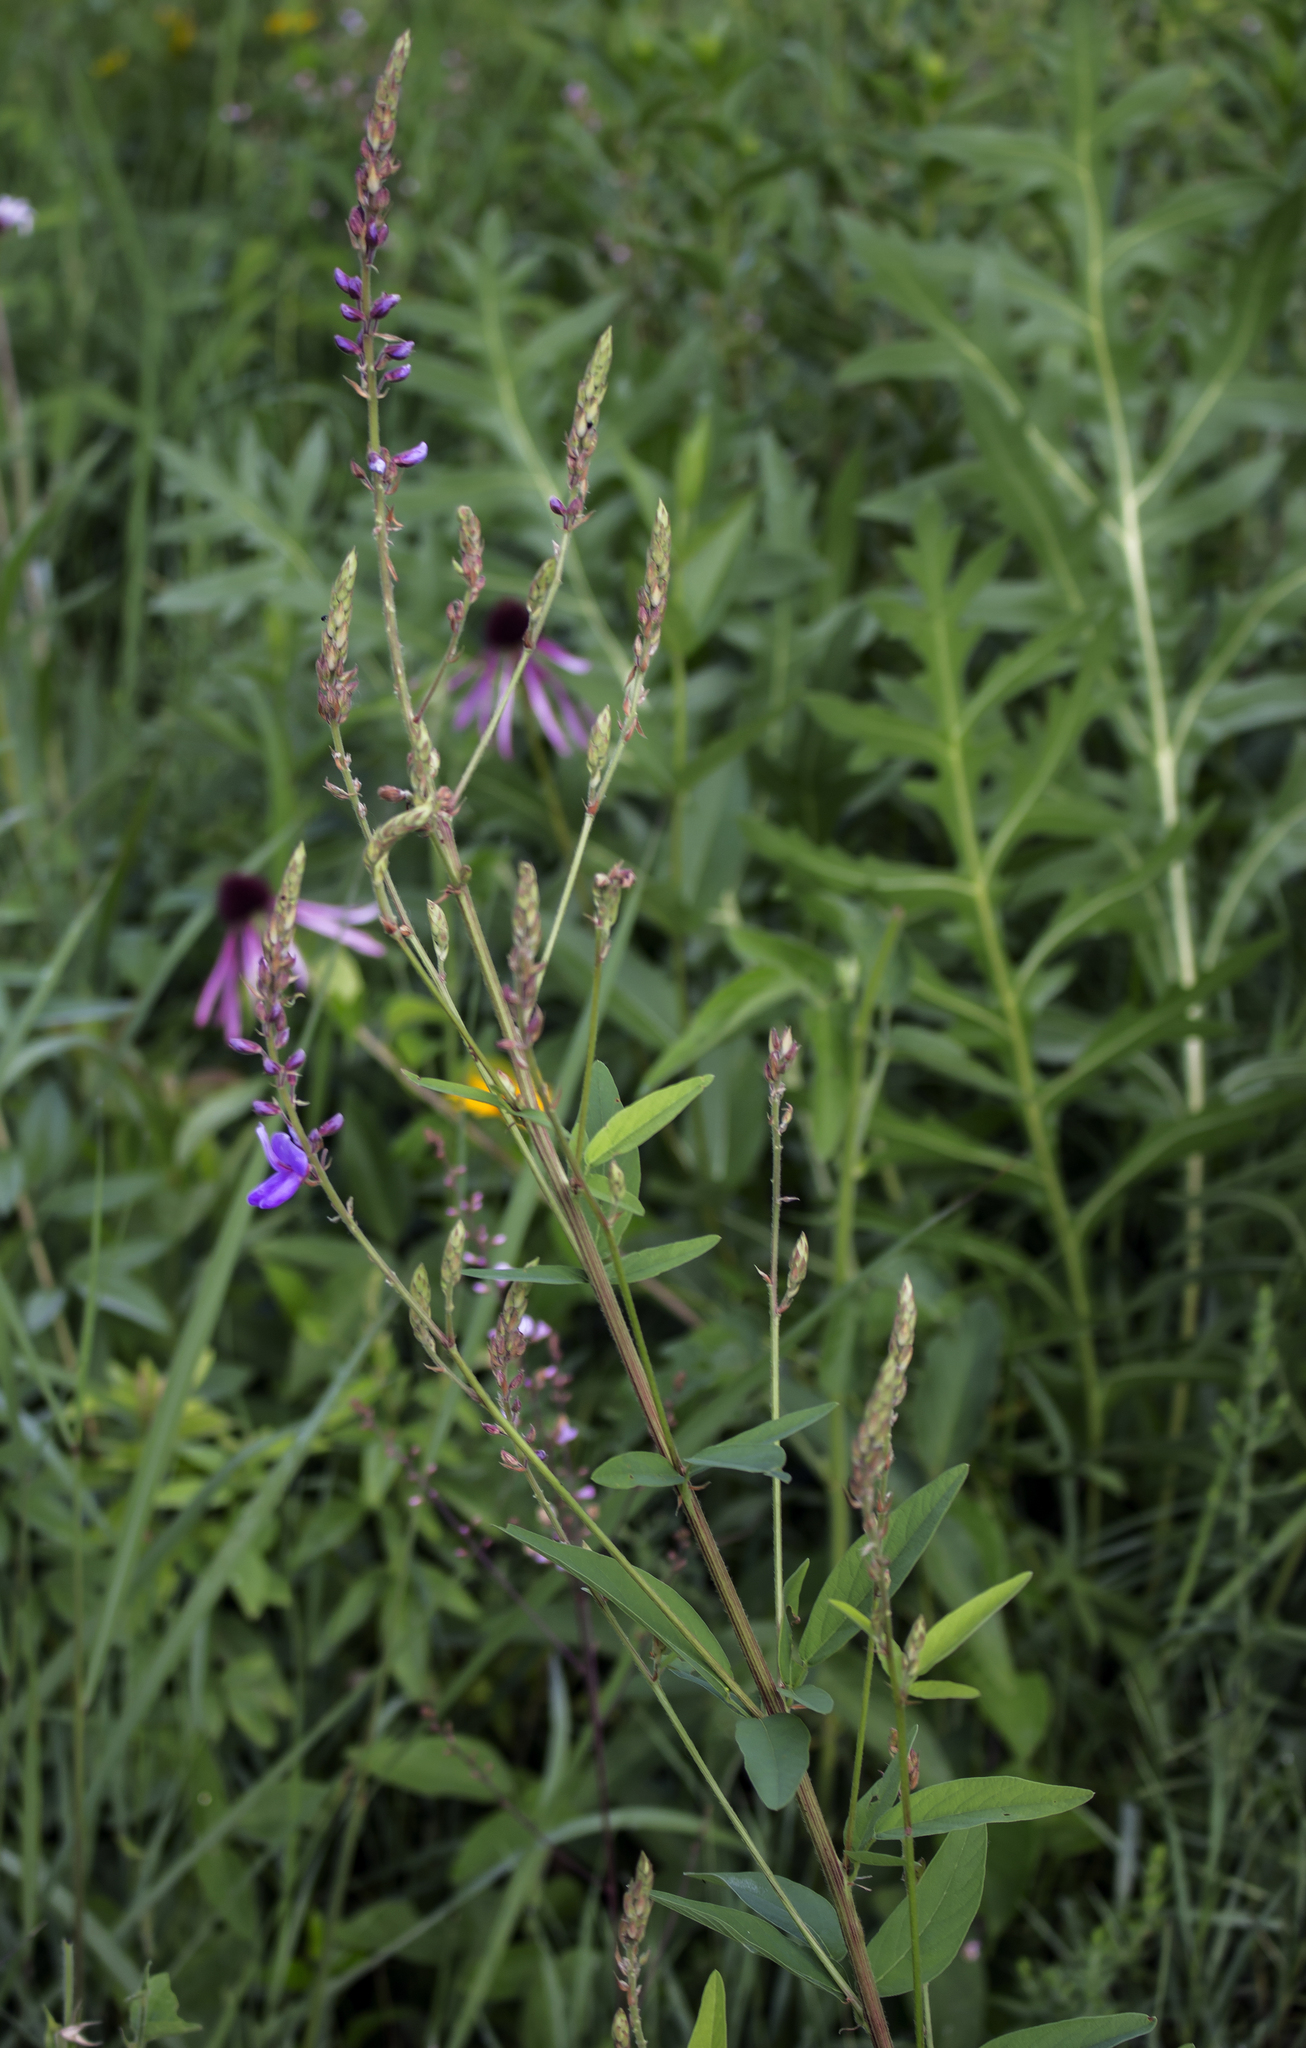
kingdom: Plantae
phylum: Tracheophyta
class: Magnoliopsida
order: Fabales
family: Fabaceae
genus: Desmodium
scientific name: Desmodium canadense
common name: Canada tick-trefoil
